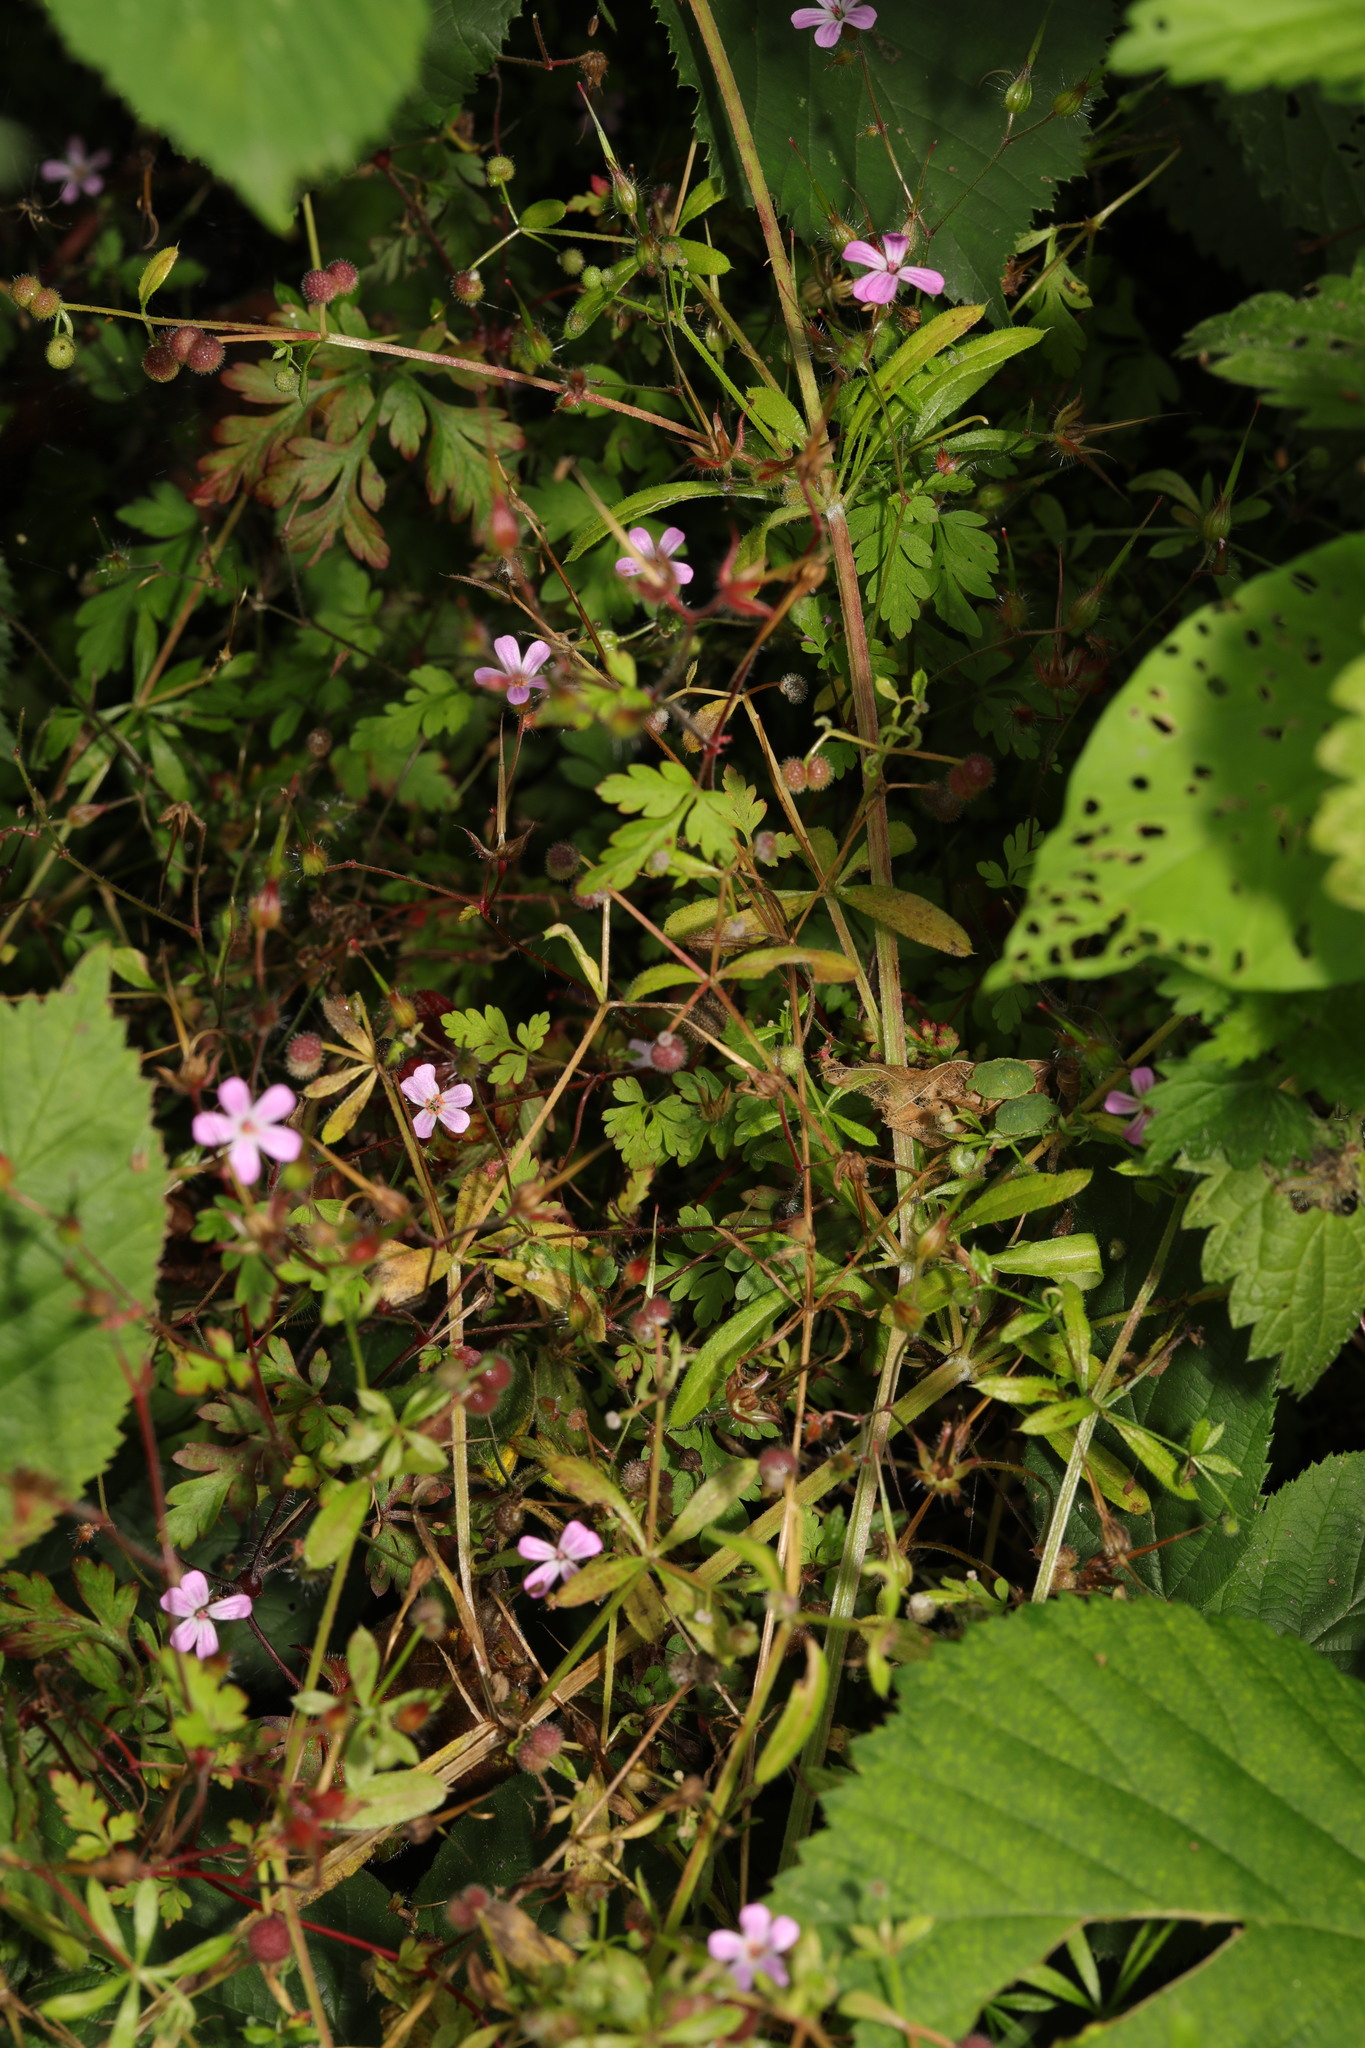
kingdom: Plantae
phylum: Tracheophyta
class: Magnoliopsida
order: Geraniales
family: Geraniaceae
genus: Geranium
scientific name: Geranium robertianum
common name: Herb-robert
